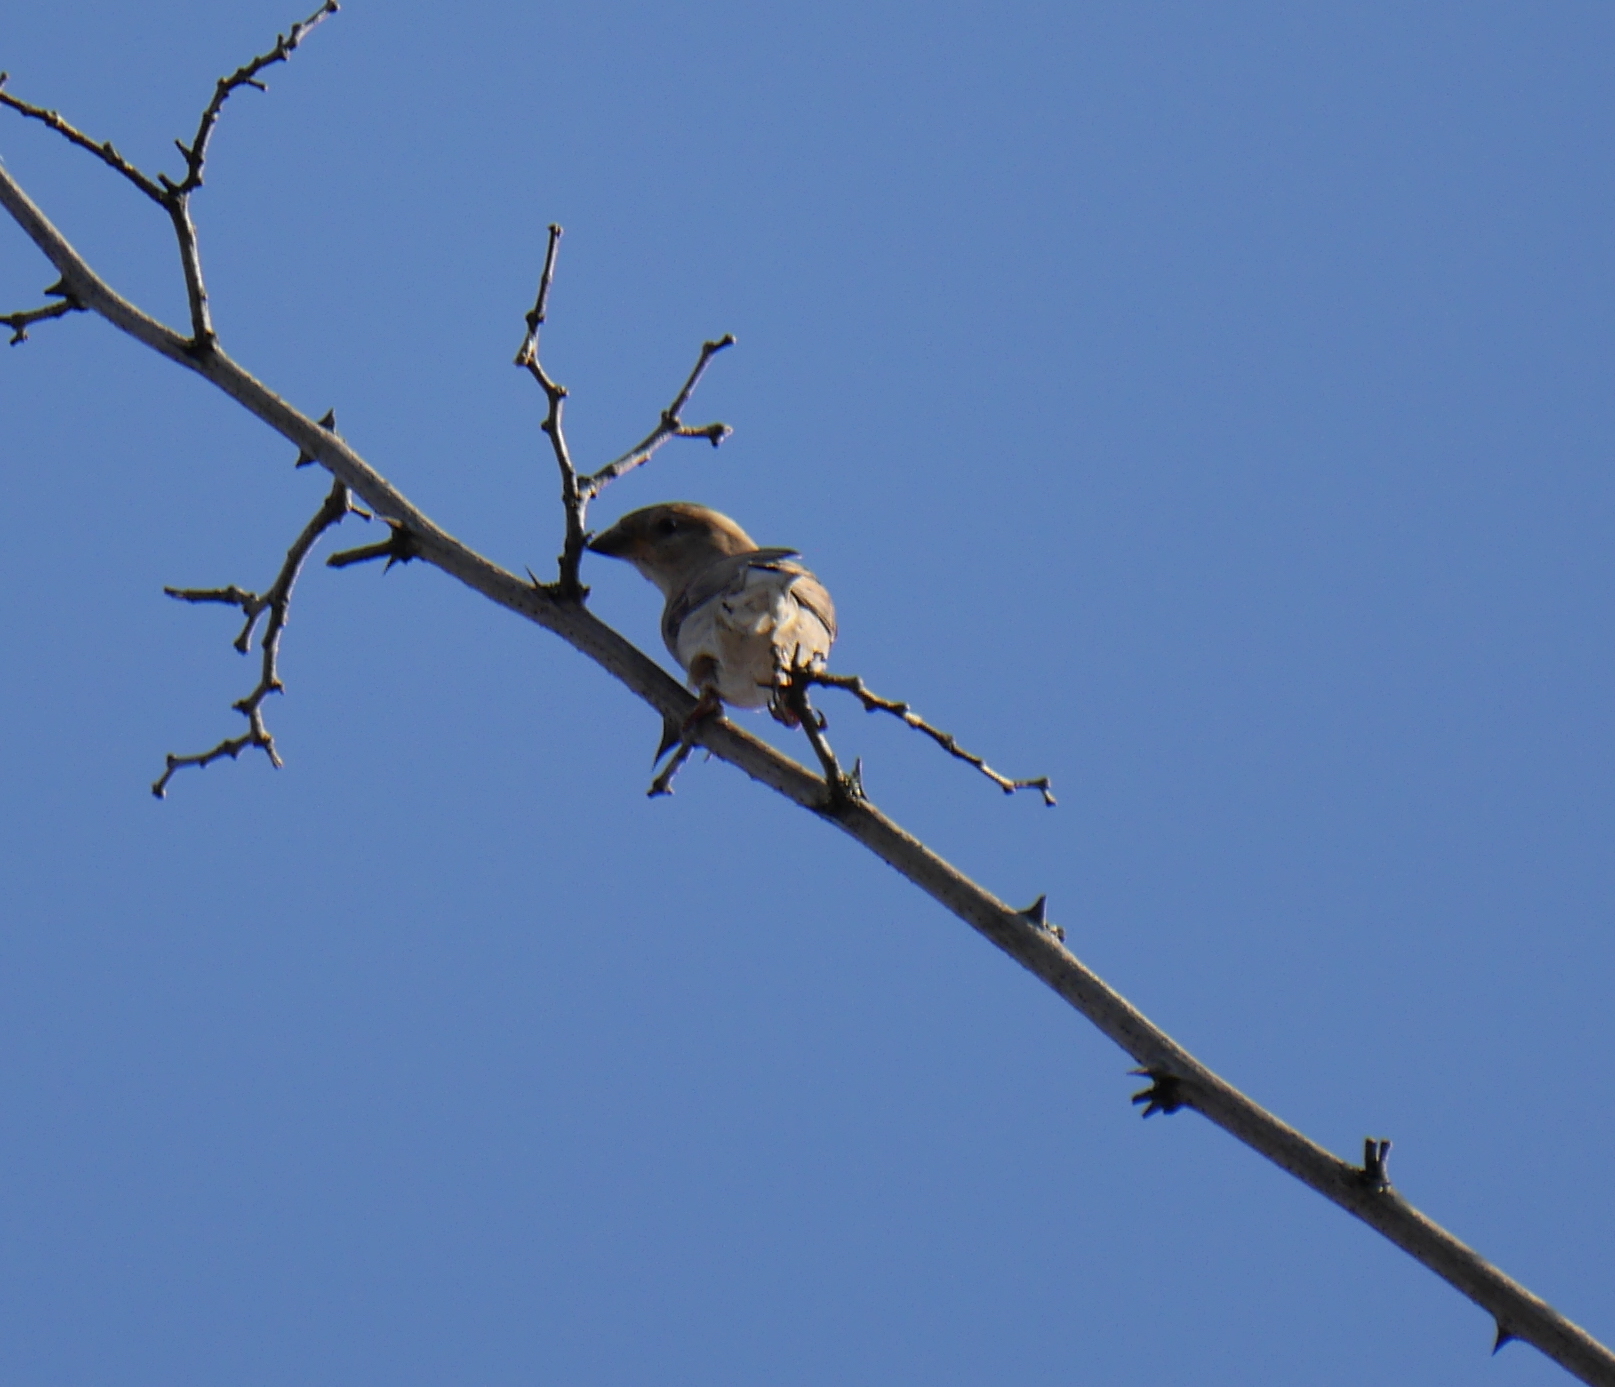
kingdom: Animalia
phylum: Chordata
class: Aves
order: Passeriformes
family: Passeridae
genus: Passer
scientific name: Passer domesticus
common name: House sparrow
